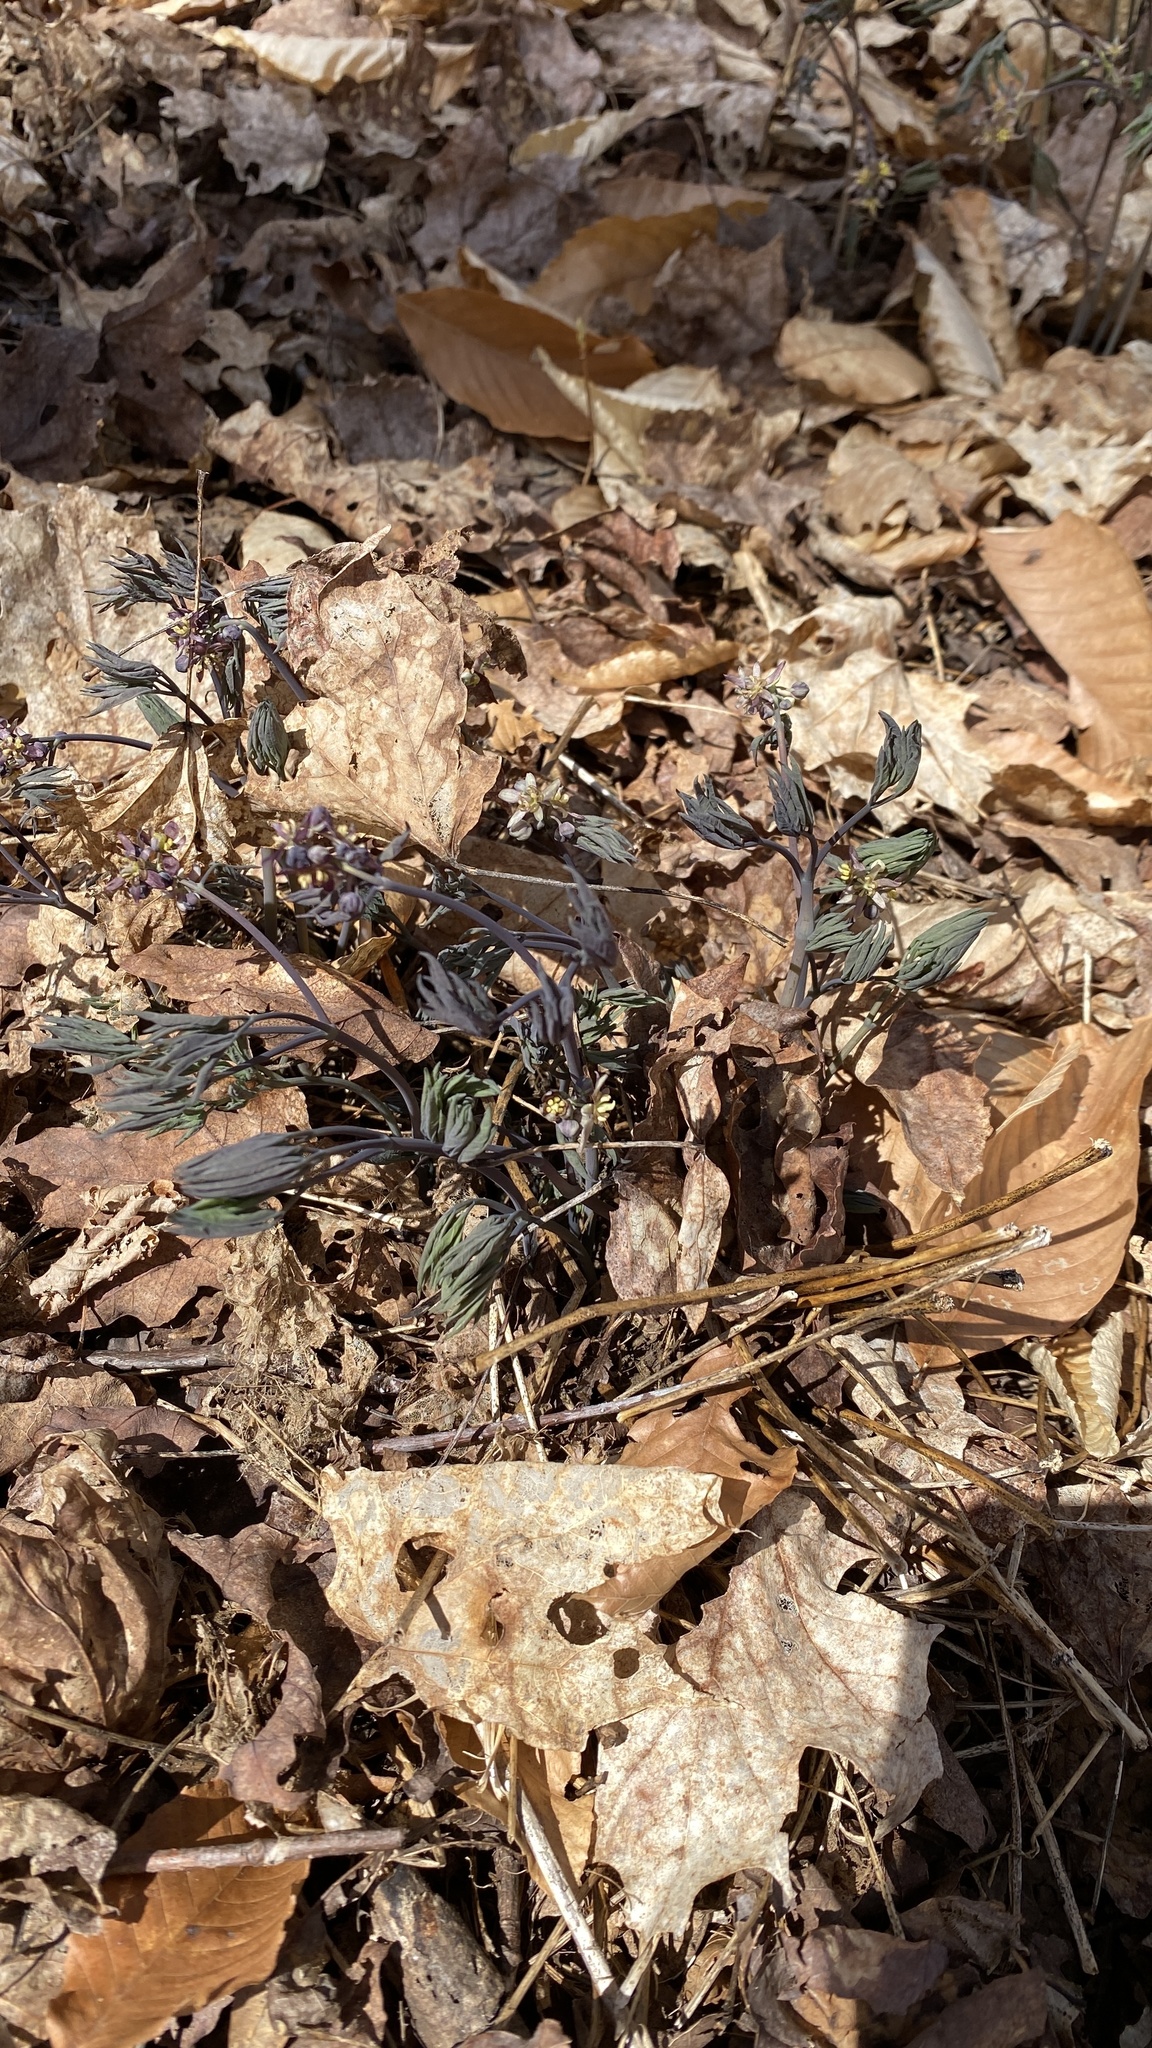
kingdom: Plantae
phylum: Tracheophyta
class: Magnoliopsida
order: Ranunculales
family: Berberidaceae
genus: Caulophyllum
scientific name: Caulophyllum giganteum
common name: Blue cohosh
